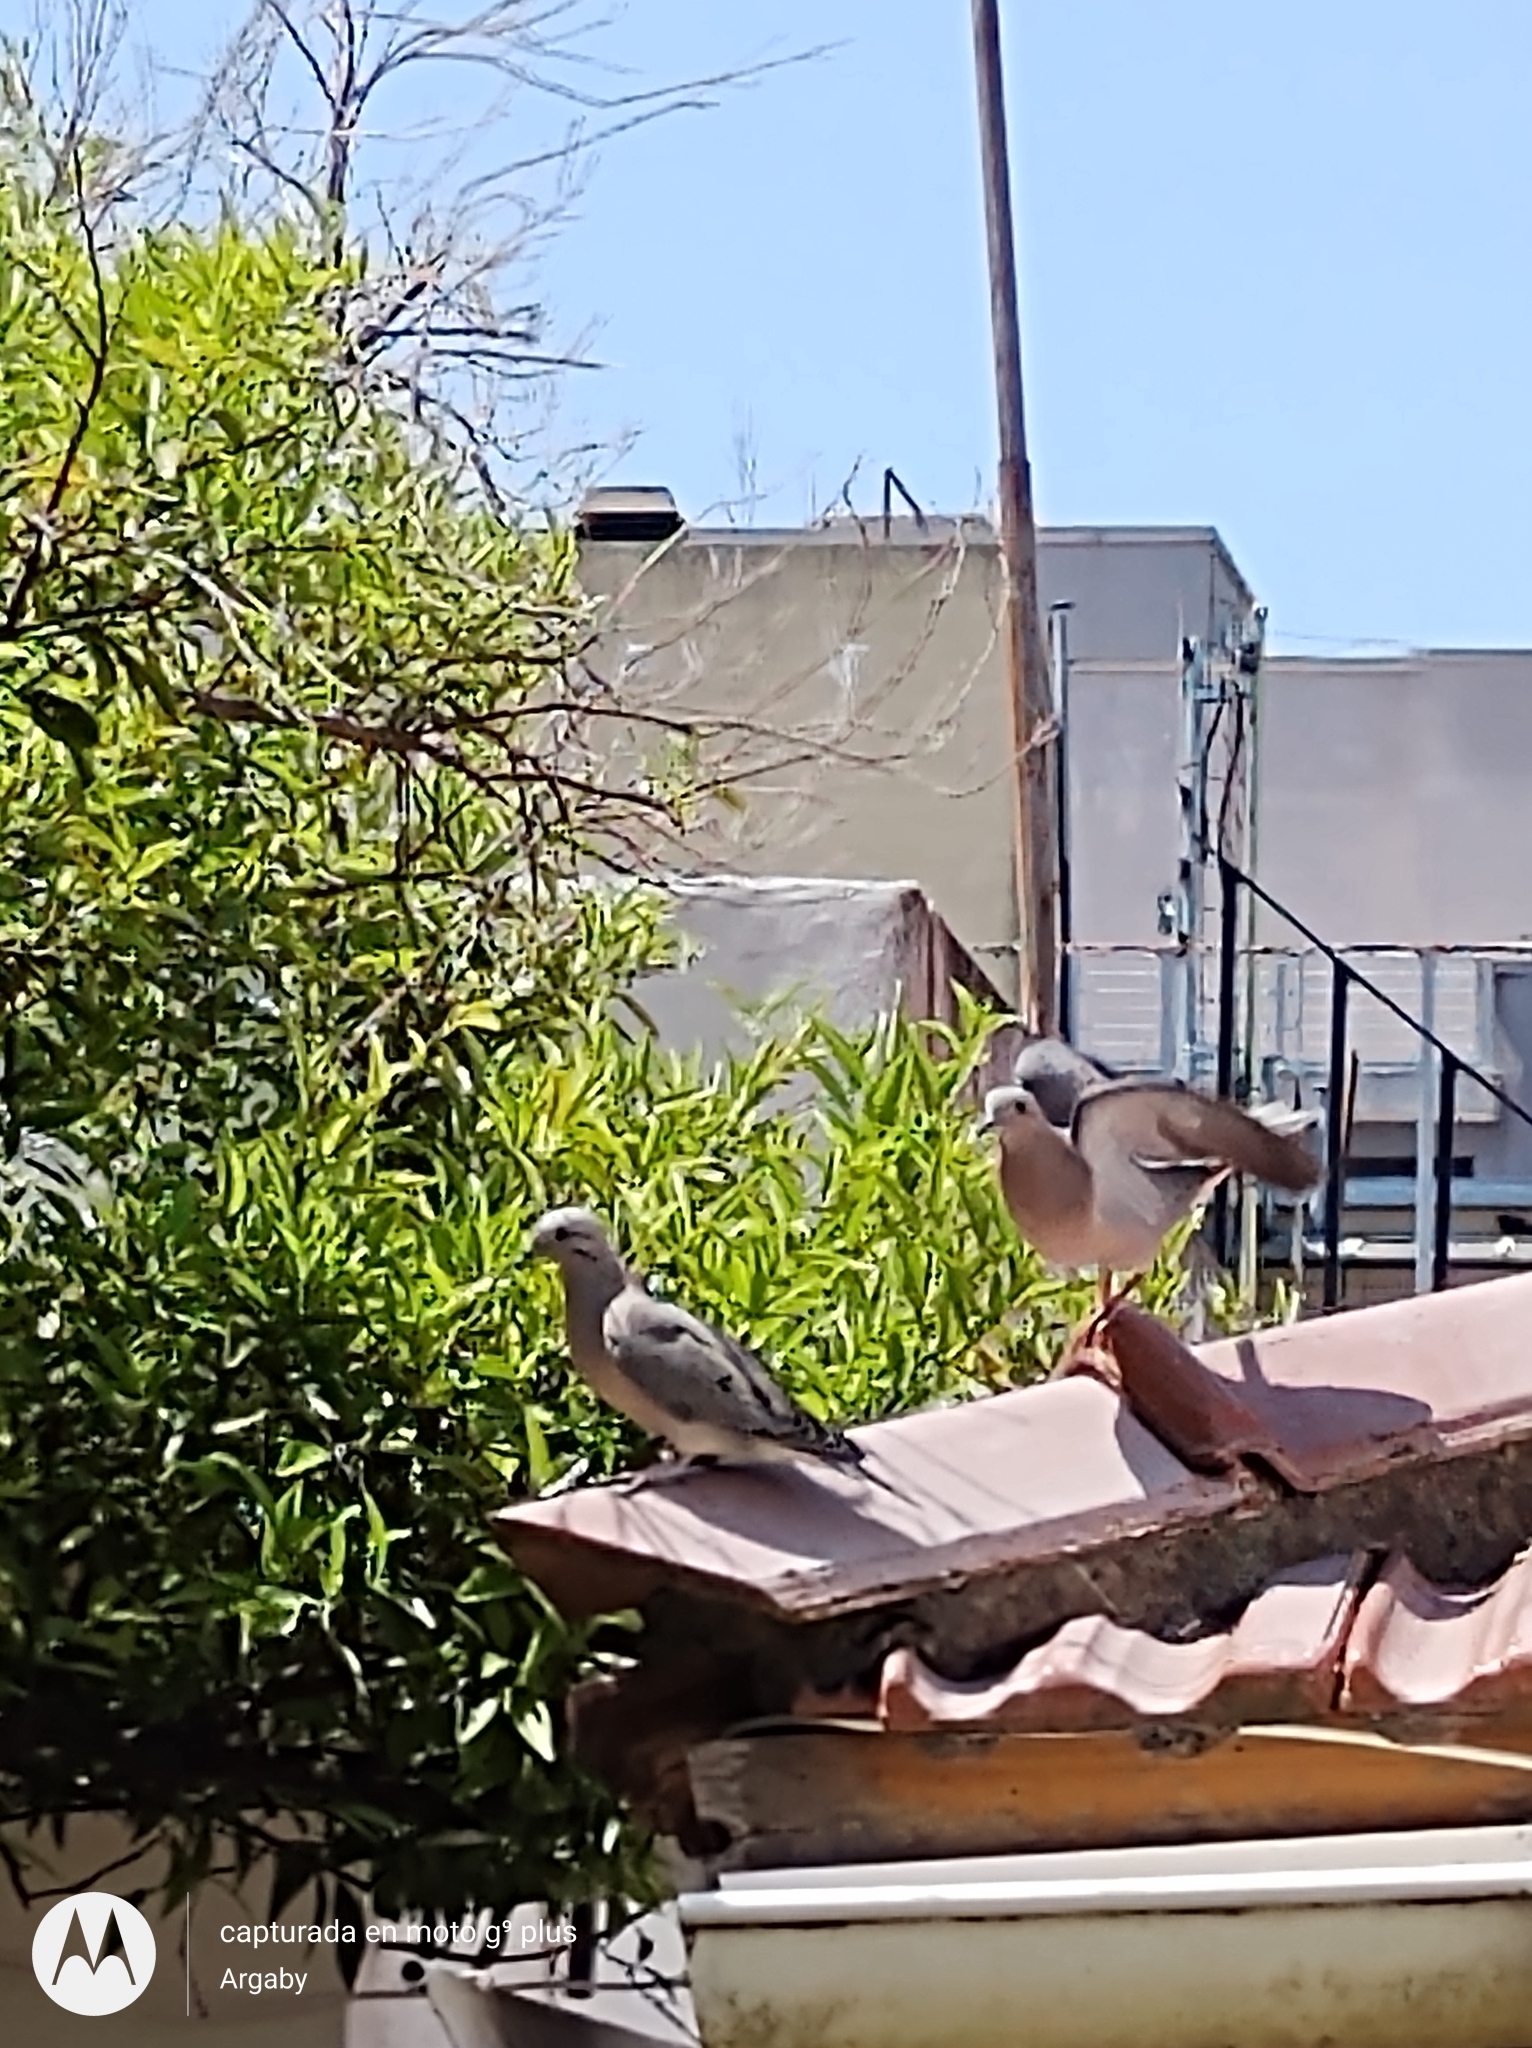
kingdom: Animalia
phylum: Chordata
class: Aves
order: Columbiformes
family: Columbidae
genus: Zenaida
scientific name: Zenaida auriculata
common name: Eared dove
